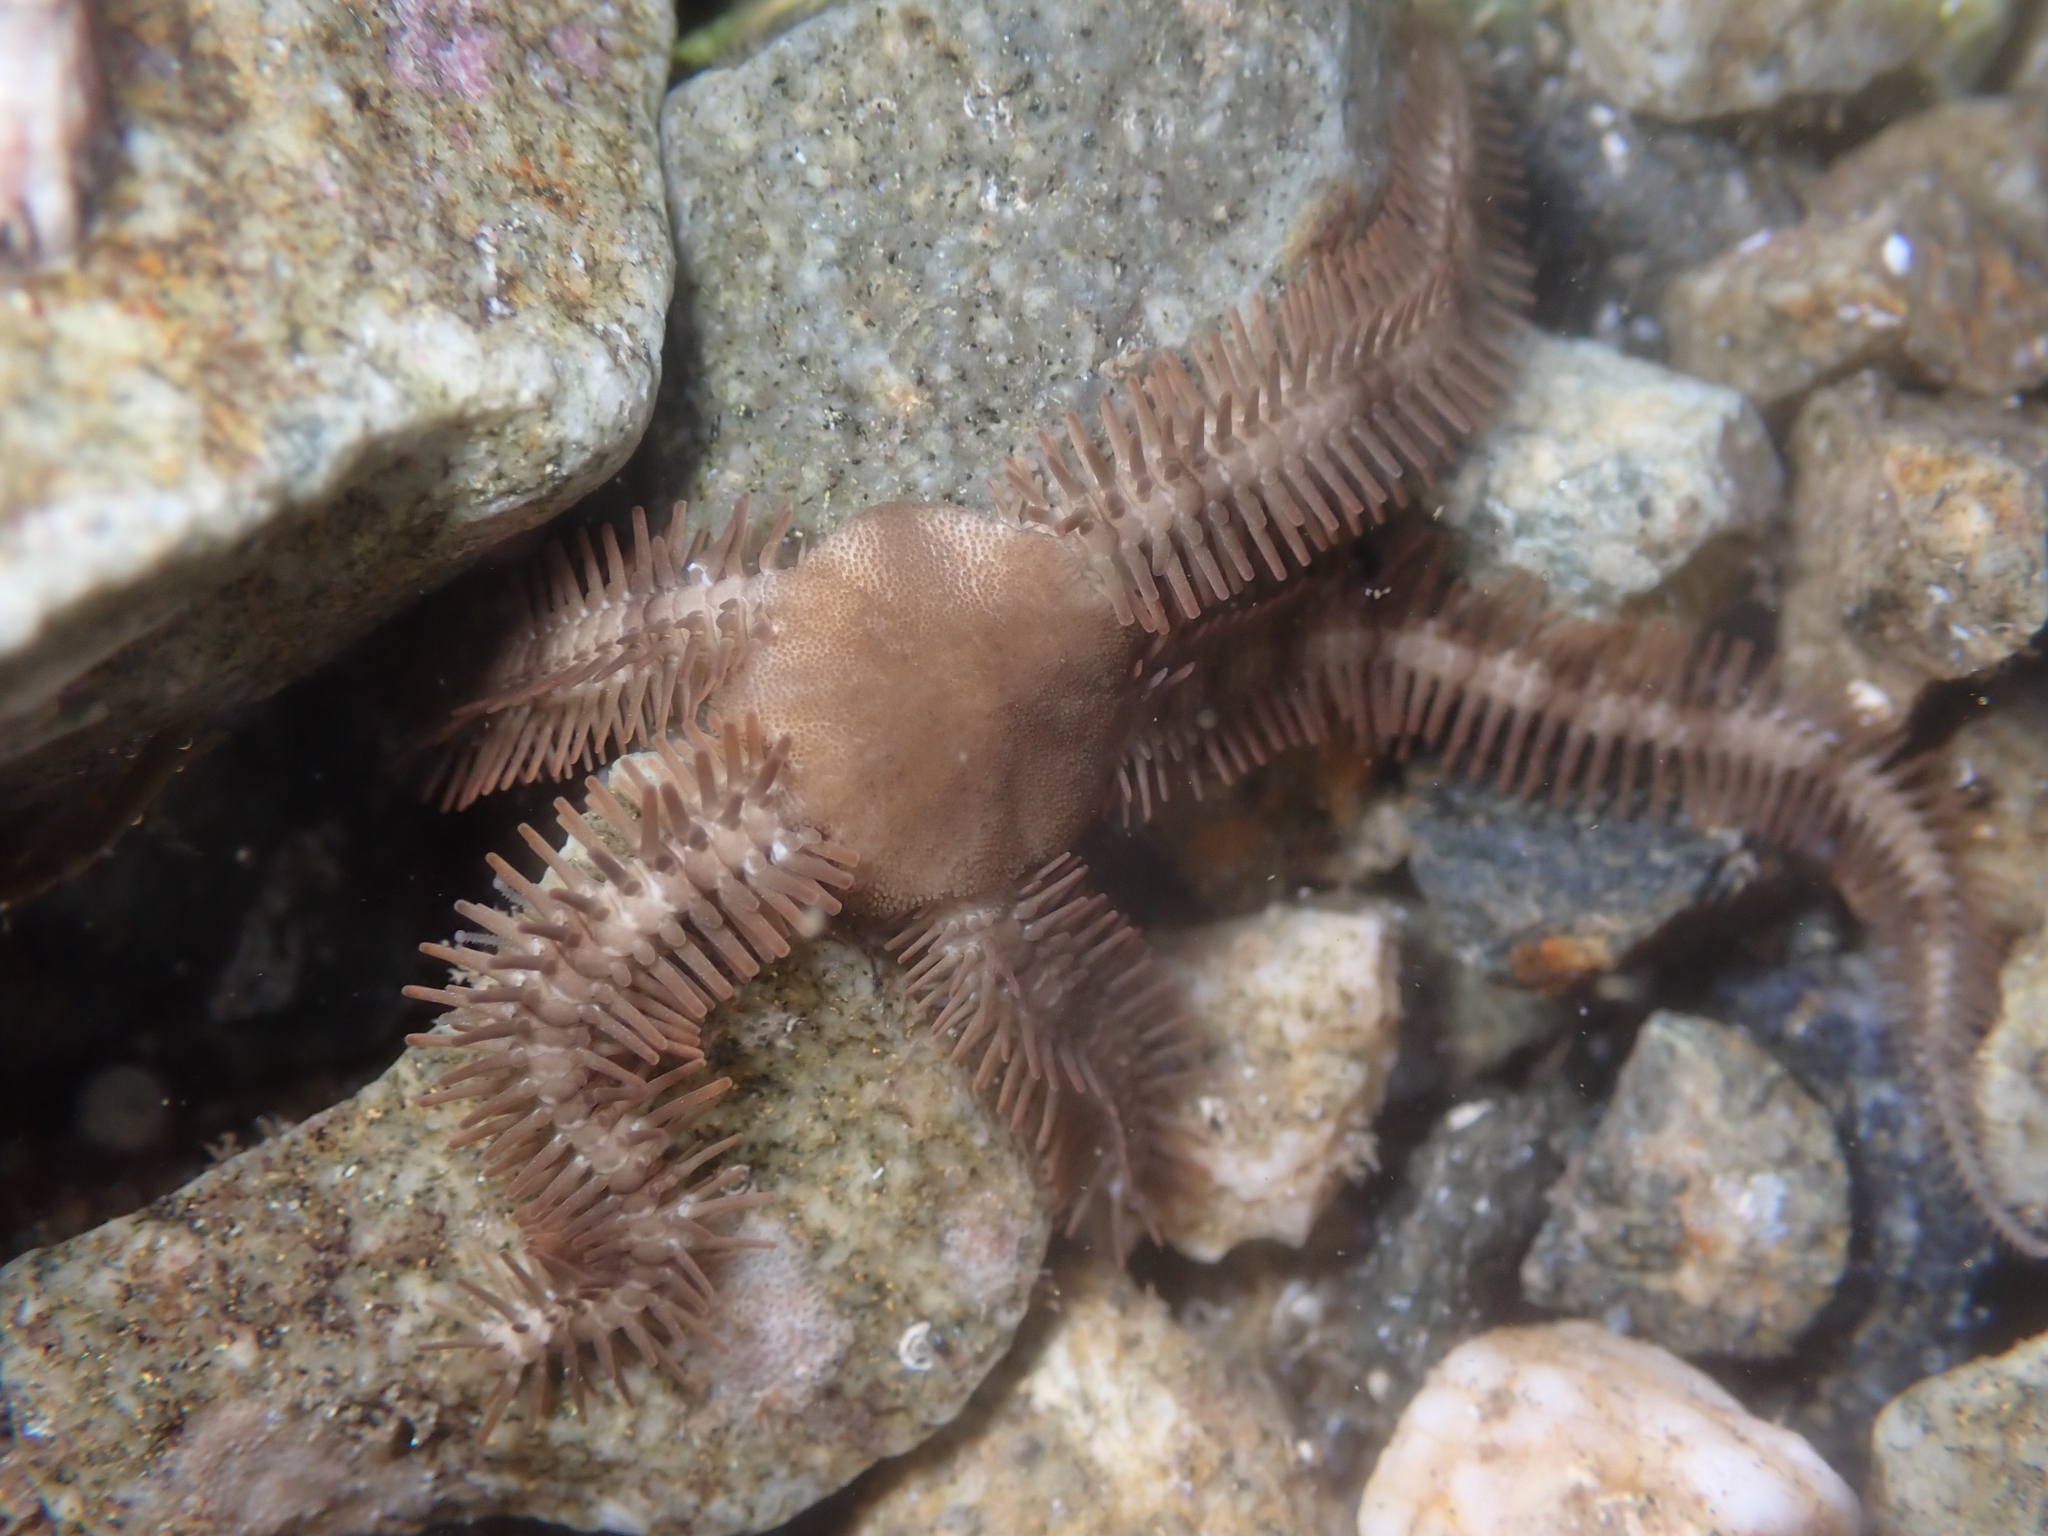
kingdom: Animalia
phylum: Echinodermata
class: Ophiuroidea
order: Ophiacanthida
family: Ophiopteridae
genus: Ophiopteris
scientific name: Ophiopteris papillosa
